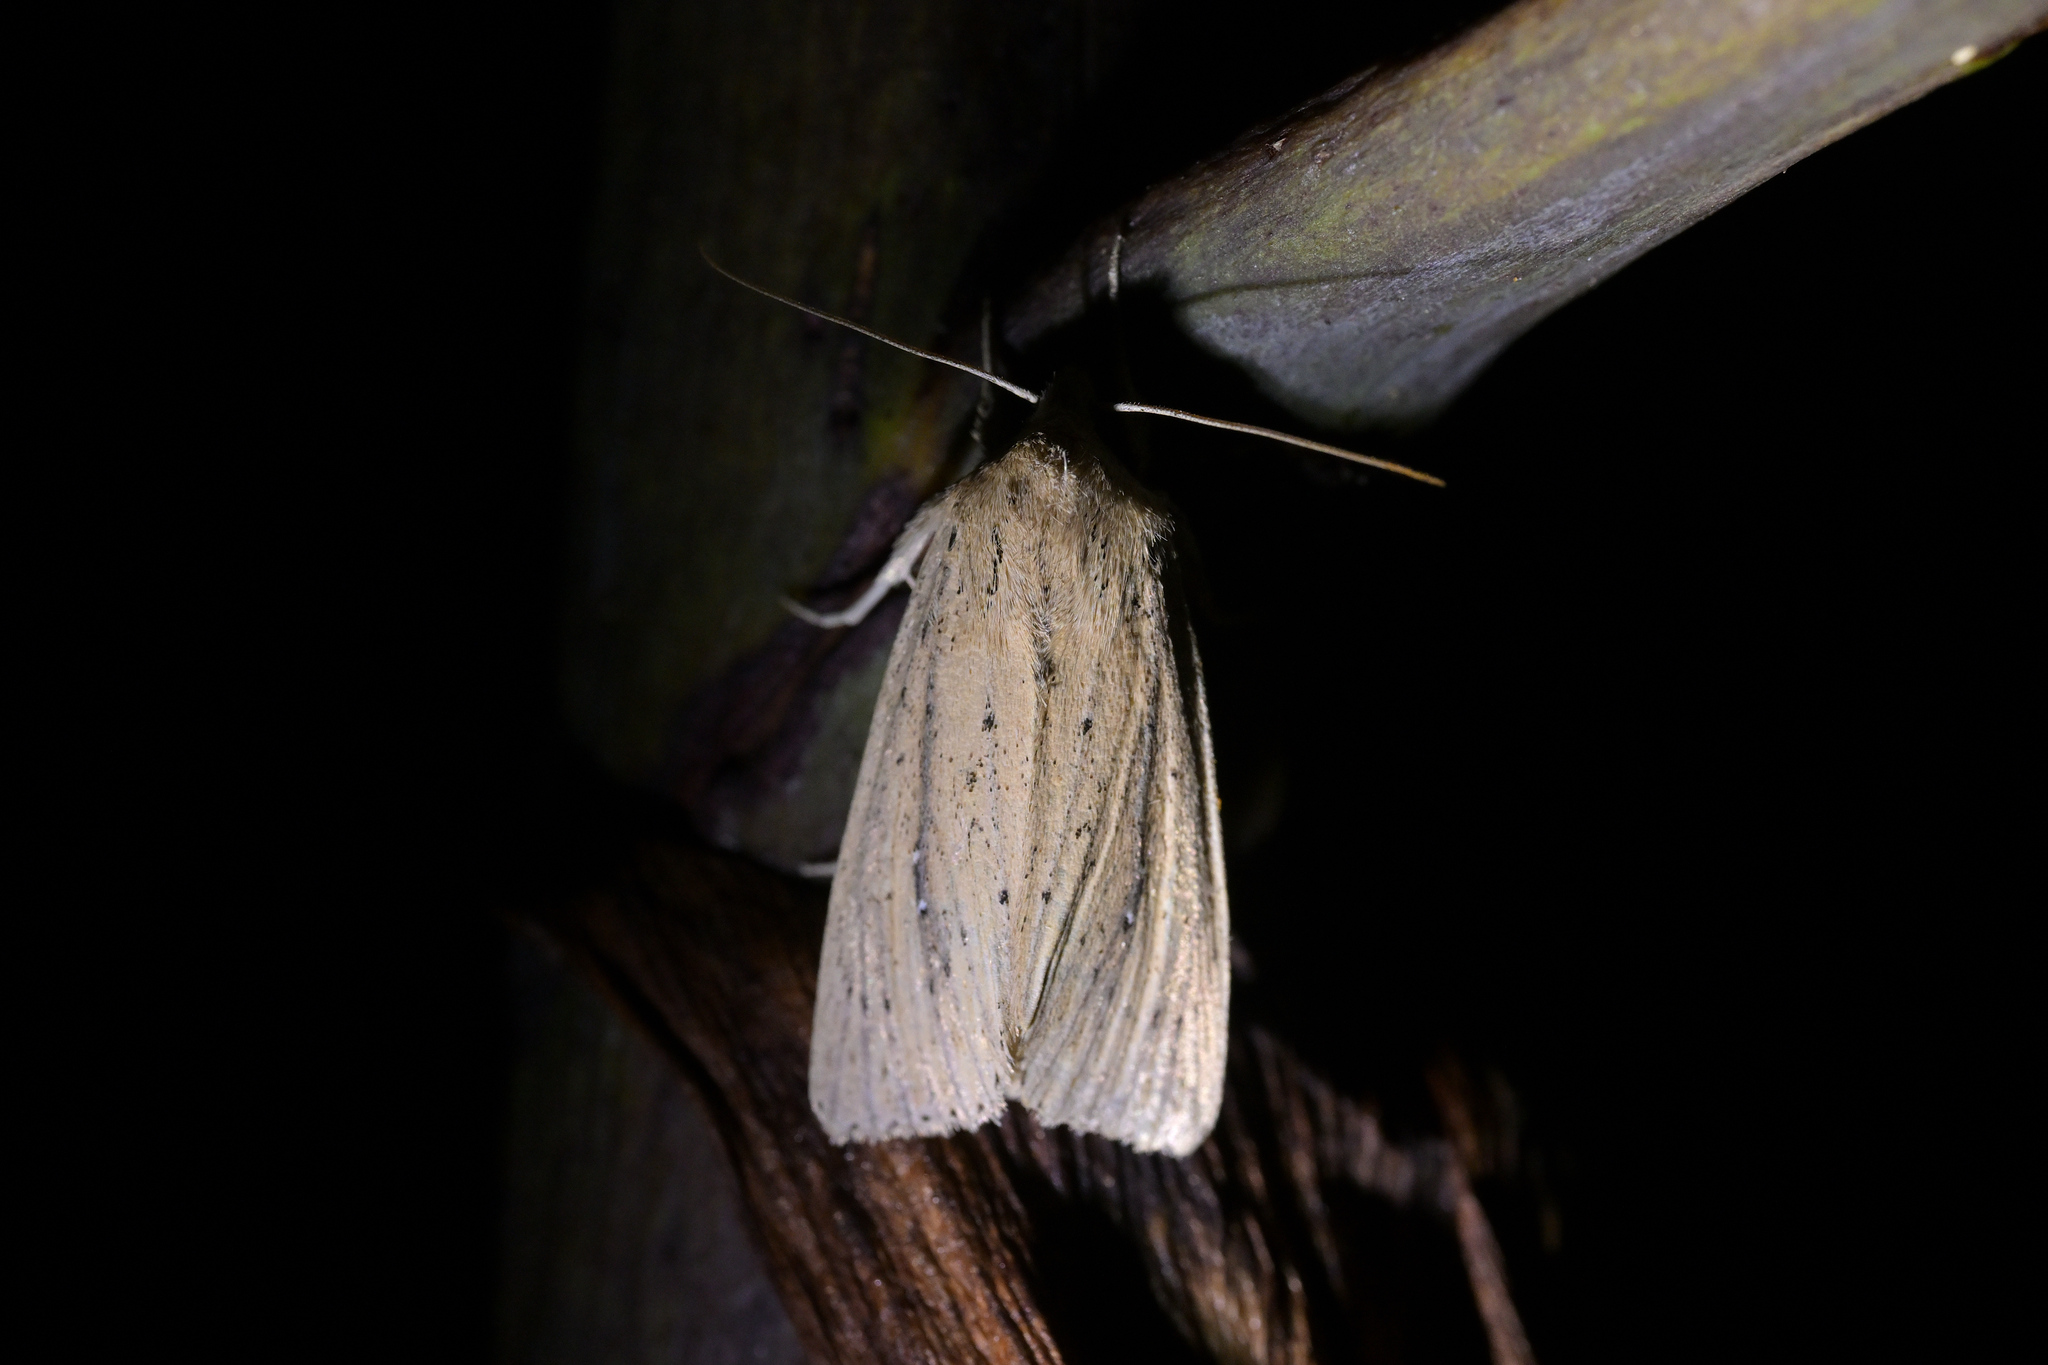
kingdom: Animalia
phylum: Arthropoda
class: Insecta
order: Lepidoptera
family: Noctuidae
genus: Ichneutica
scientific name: Ichneutica
